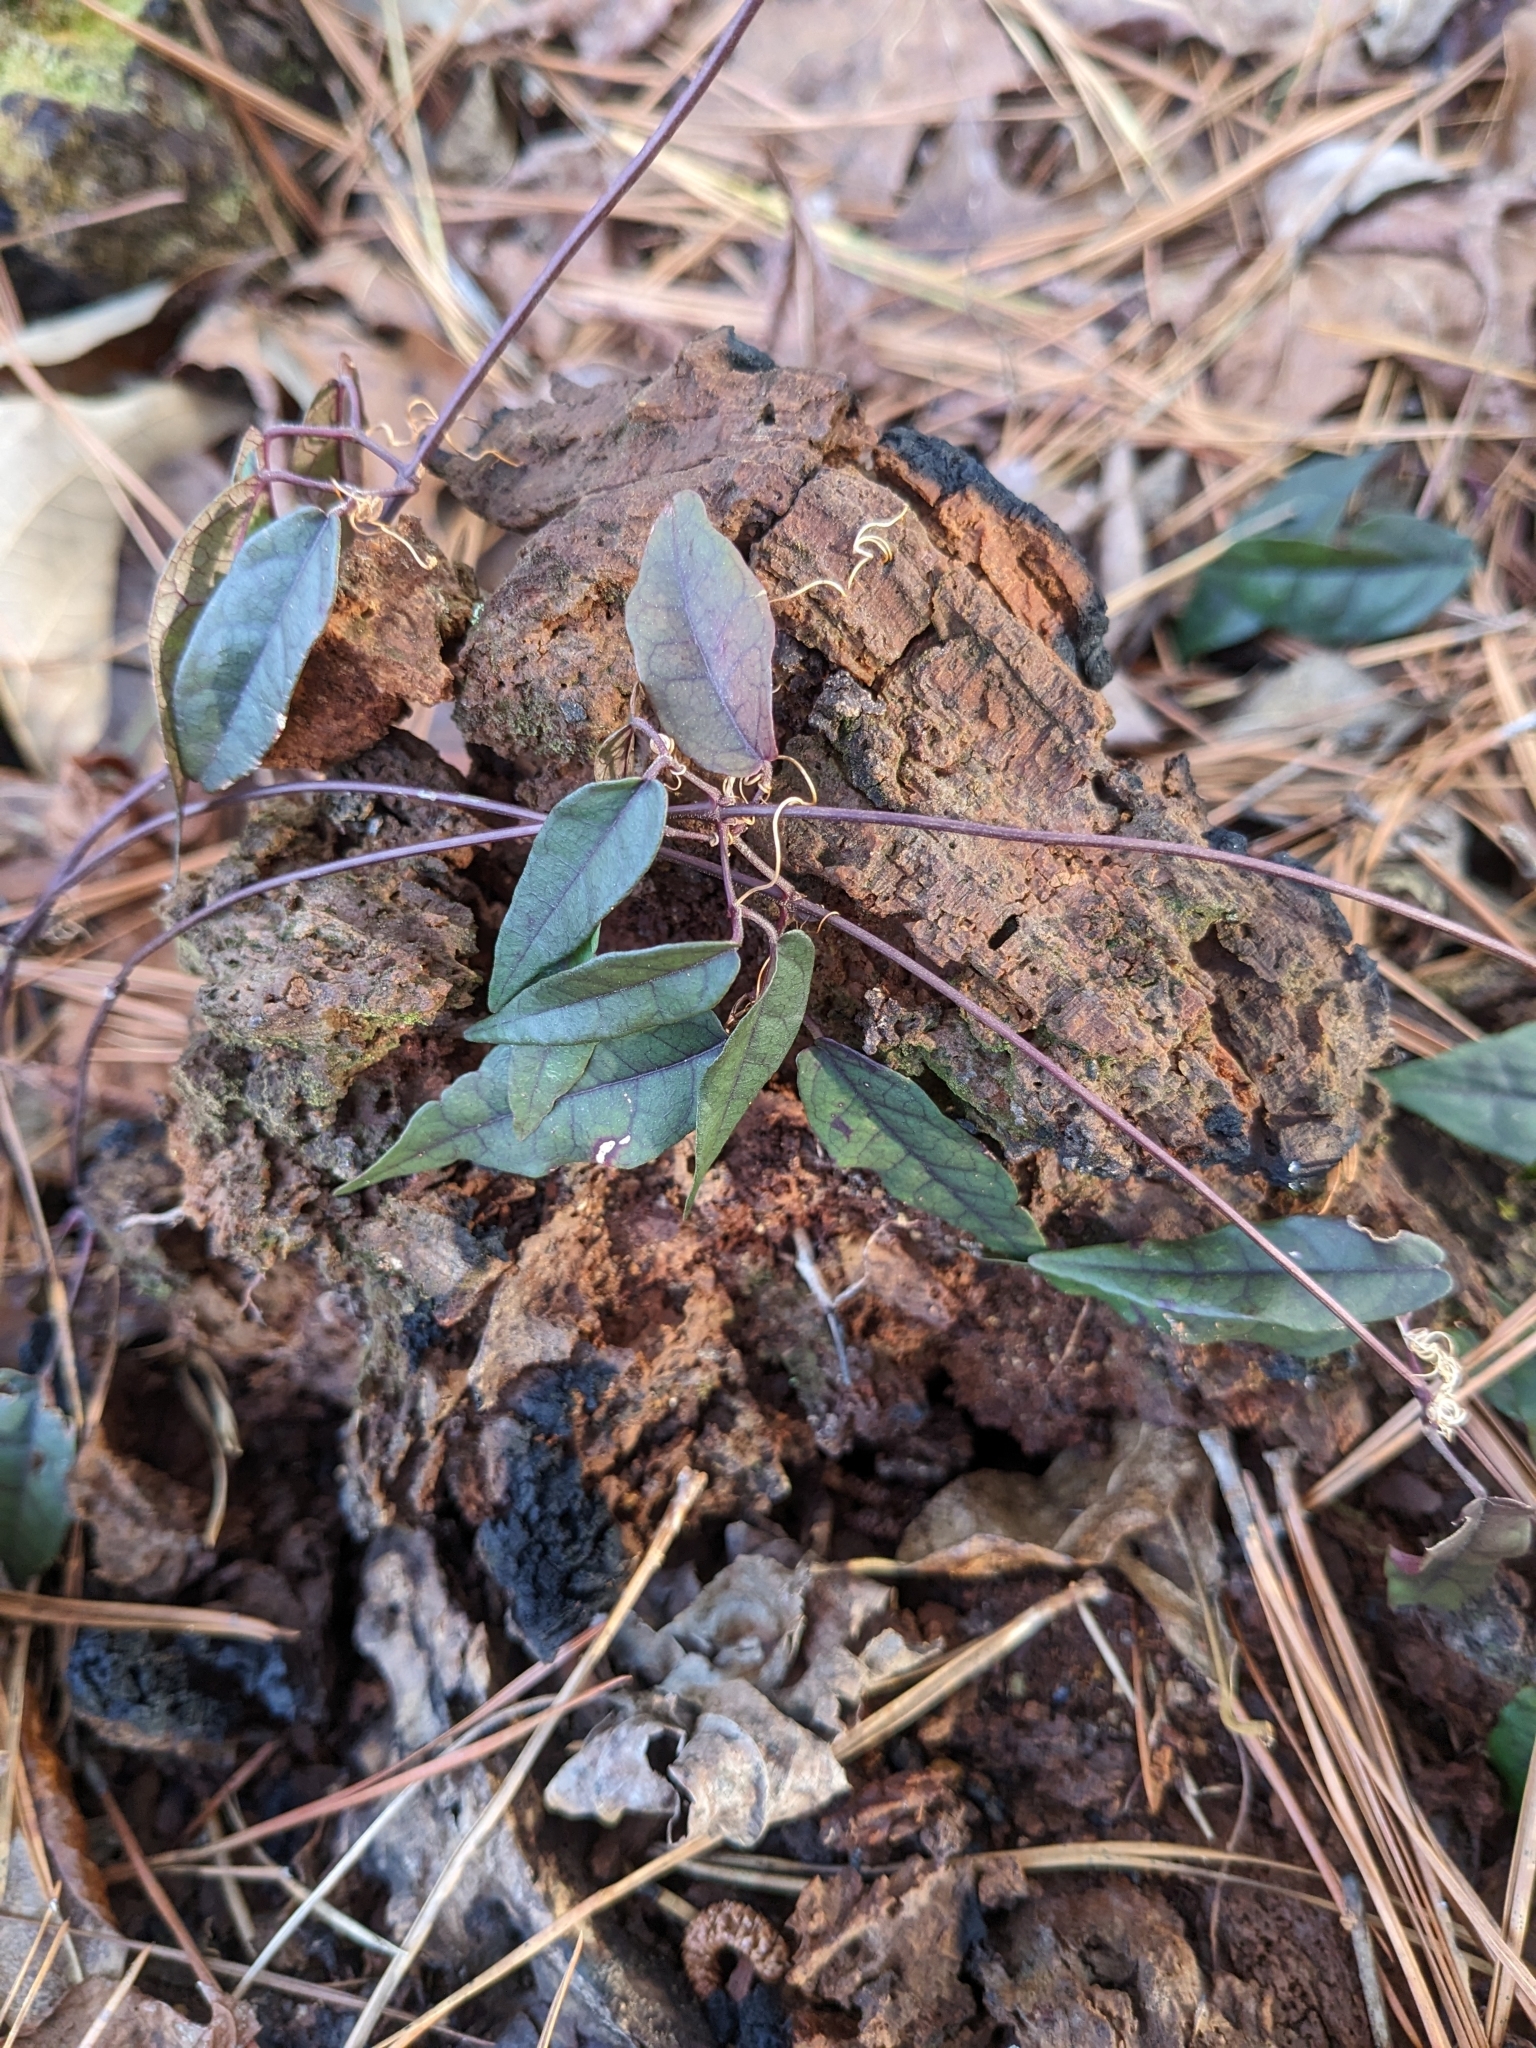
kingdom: Plantae
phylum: Tracheophyta
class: Magnoliopsida
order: Lamiales
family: Bignoniaceae
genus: Bignonia
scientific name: Bignonia capreolata
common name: Crossvine
